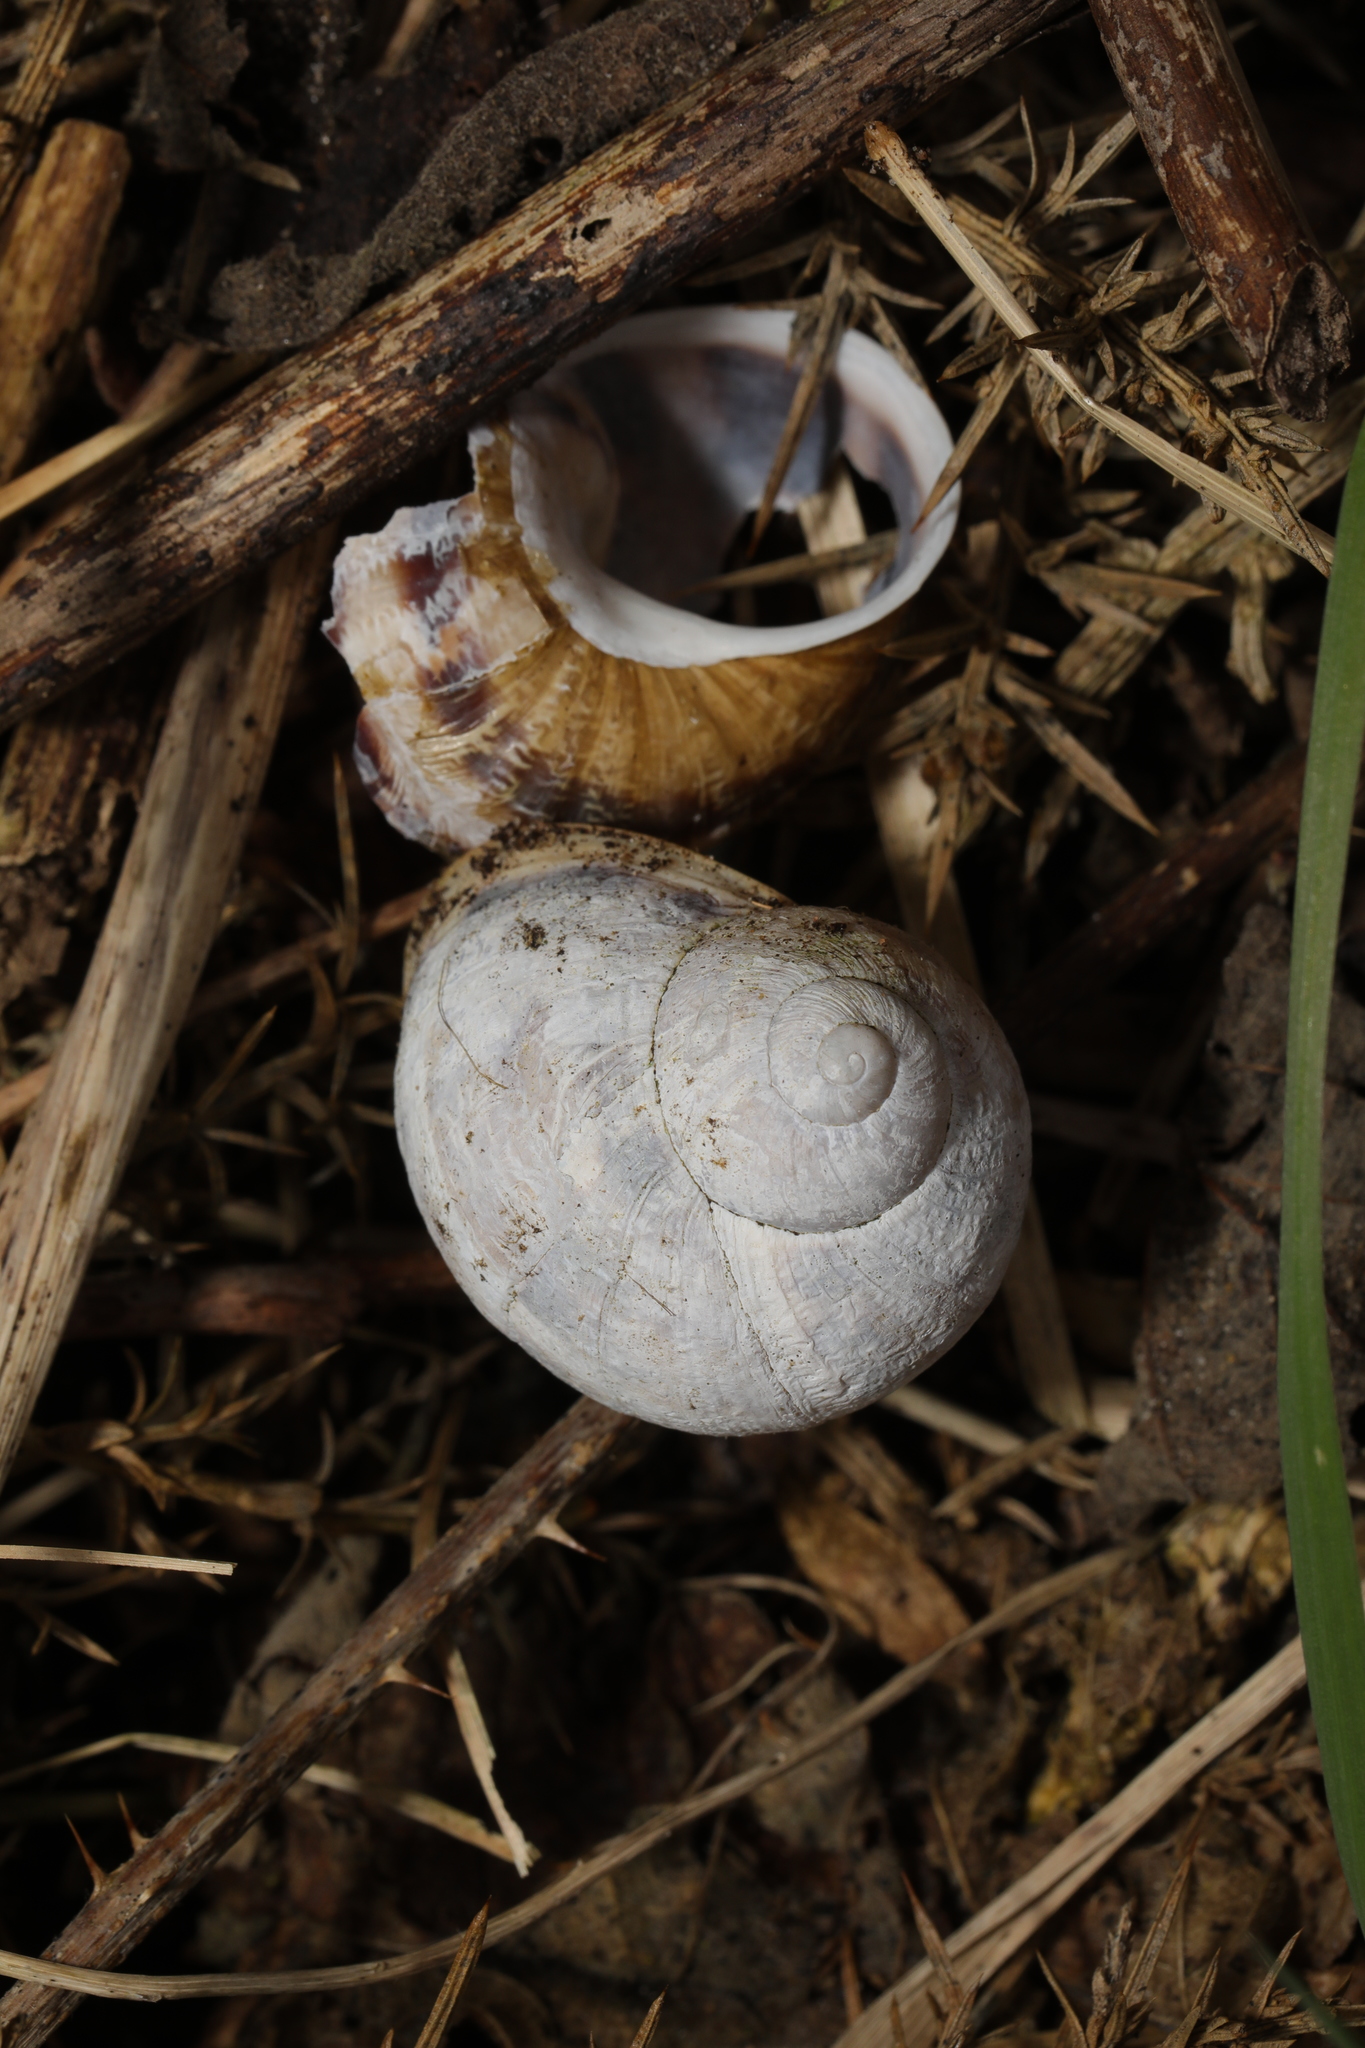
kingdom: Animalia
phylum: Mollusca
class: Gastropoda
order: Stylommatophora
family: Helicidae
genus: Cornu
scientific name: Cornu aspersum
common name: Brown garden snail
